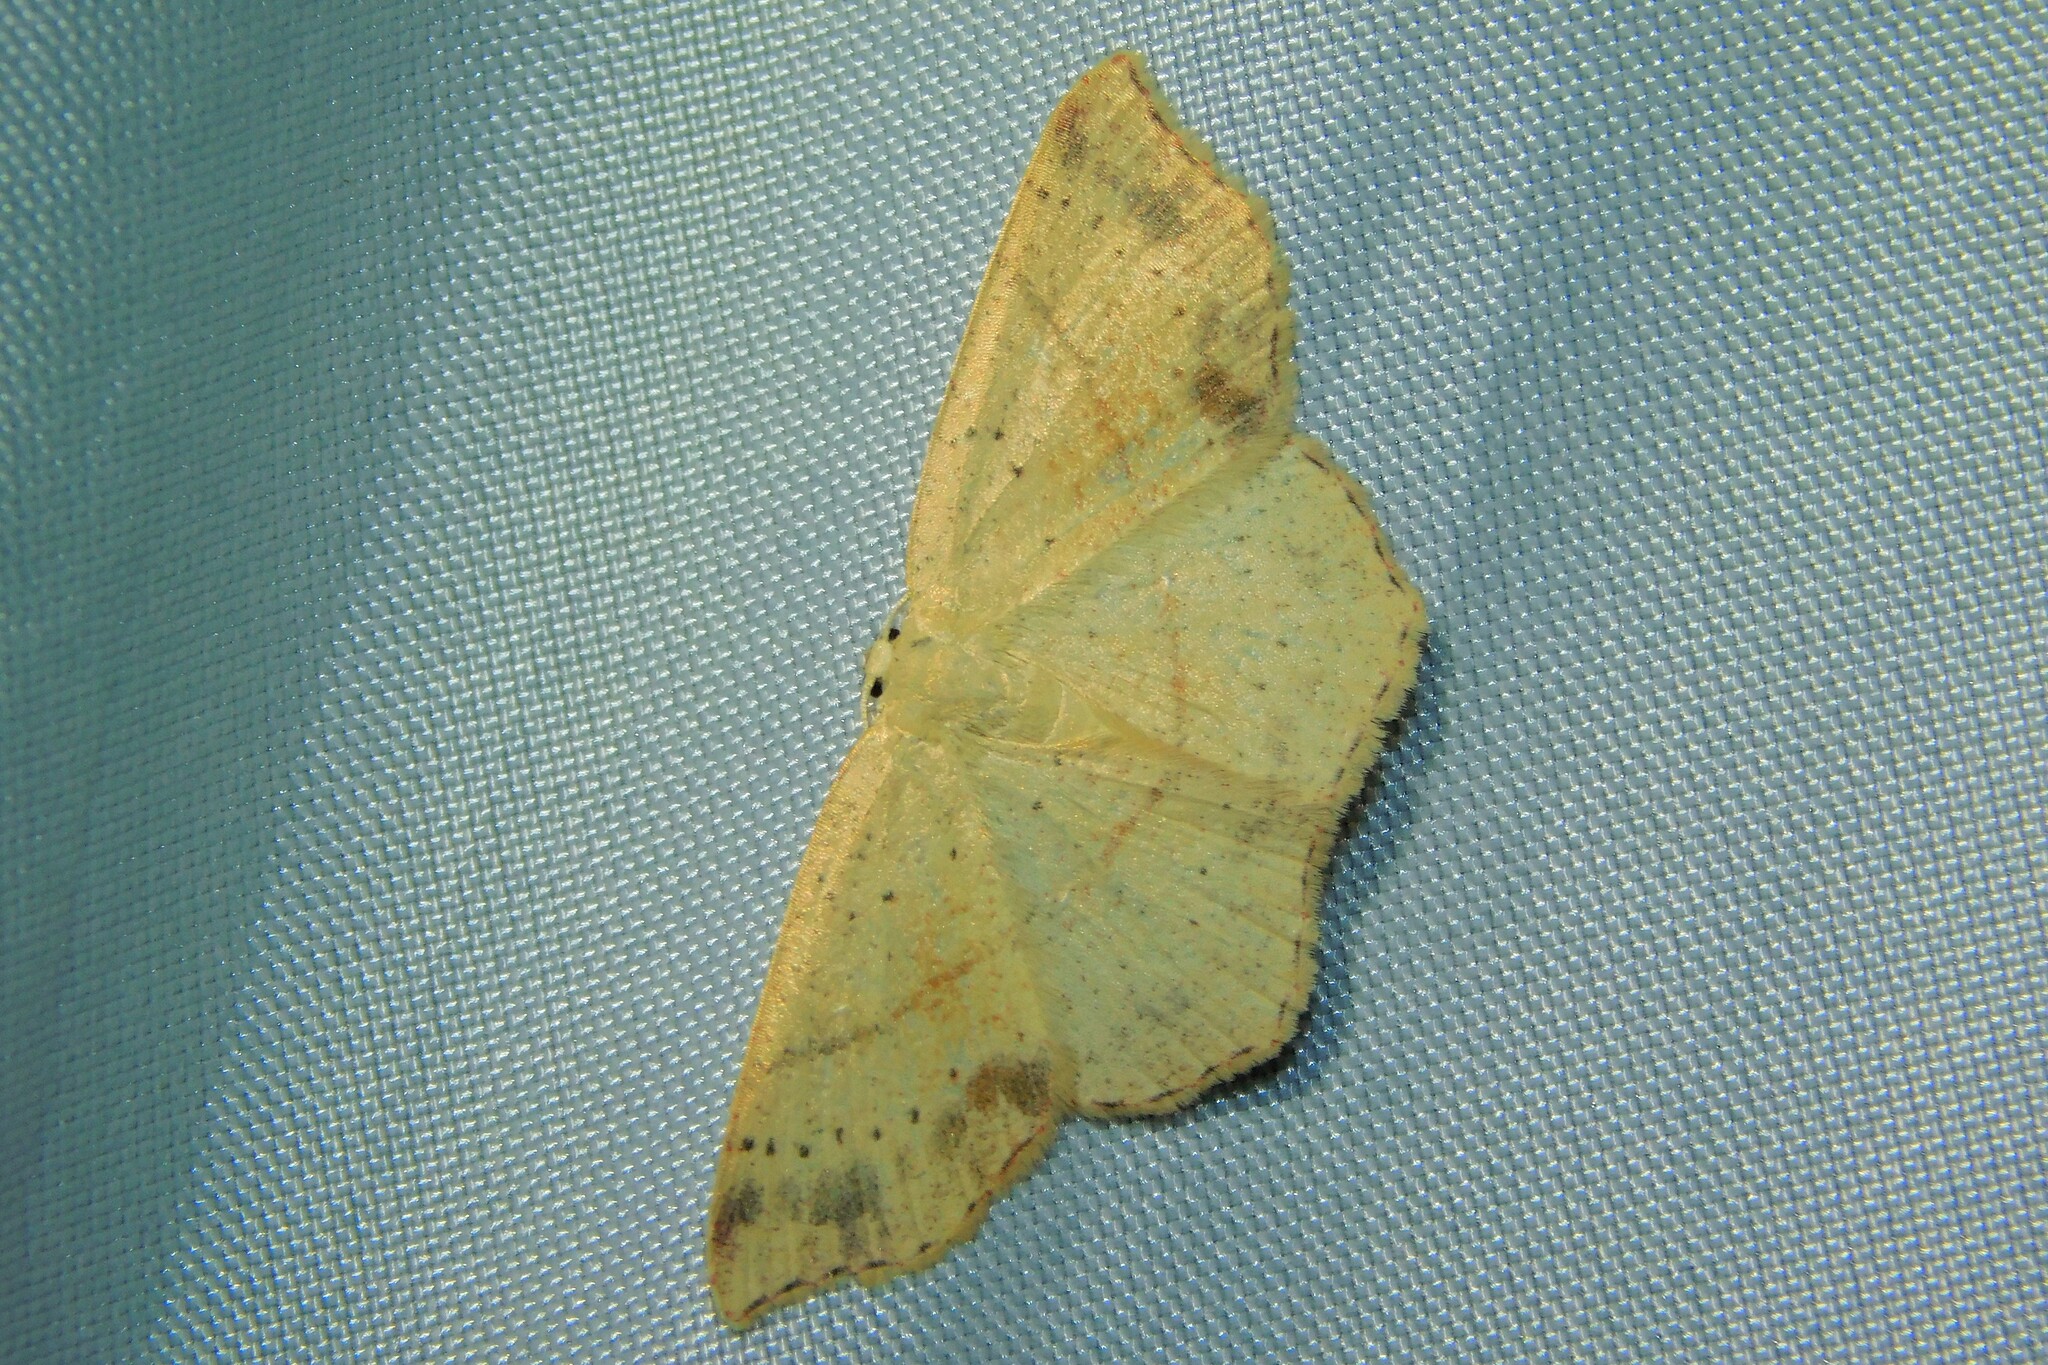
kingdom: Animalia
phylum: Arthropoda
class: Insecta
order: Lepidoptera
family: Geometridae
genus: Cyclophora
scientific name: Cyclophora punctaria
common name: Maiden's blush
